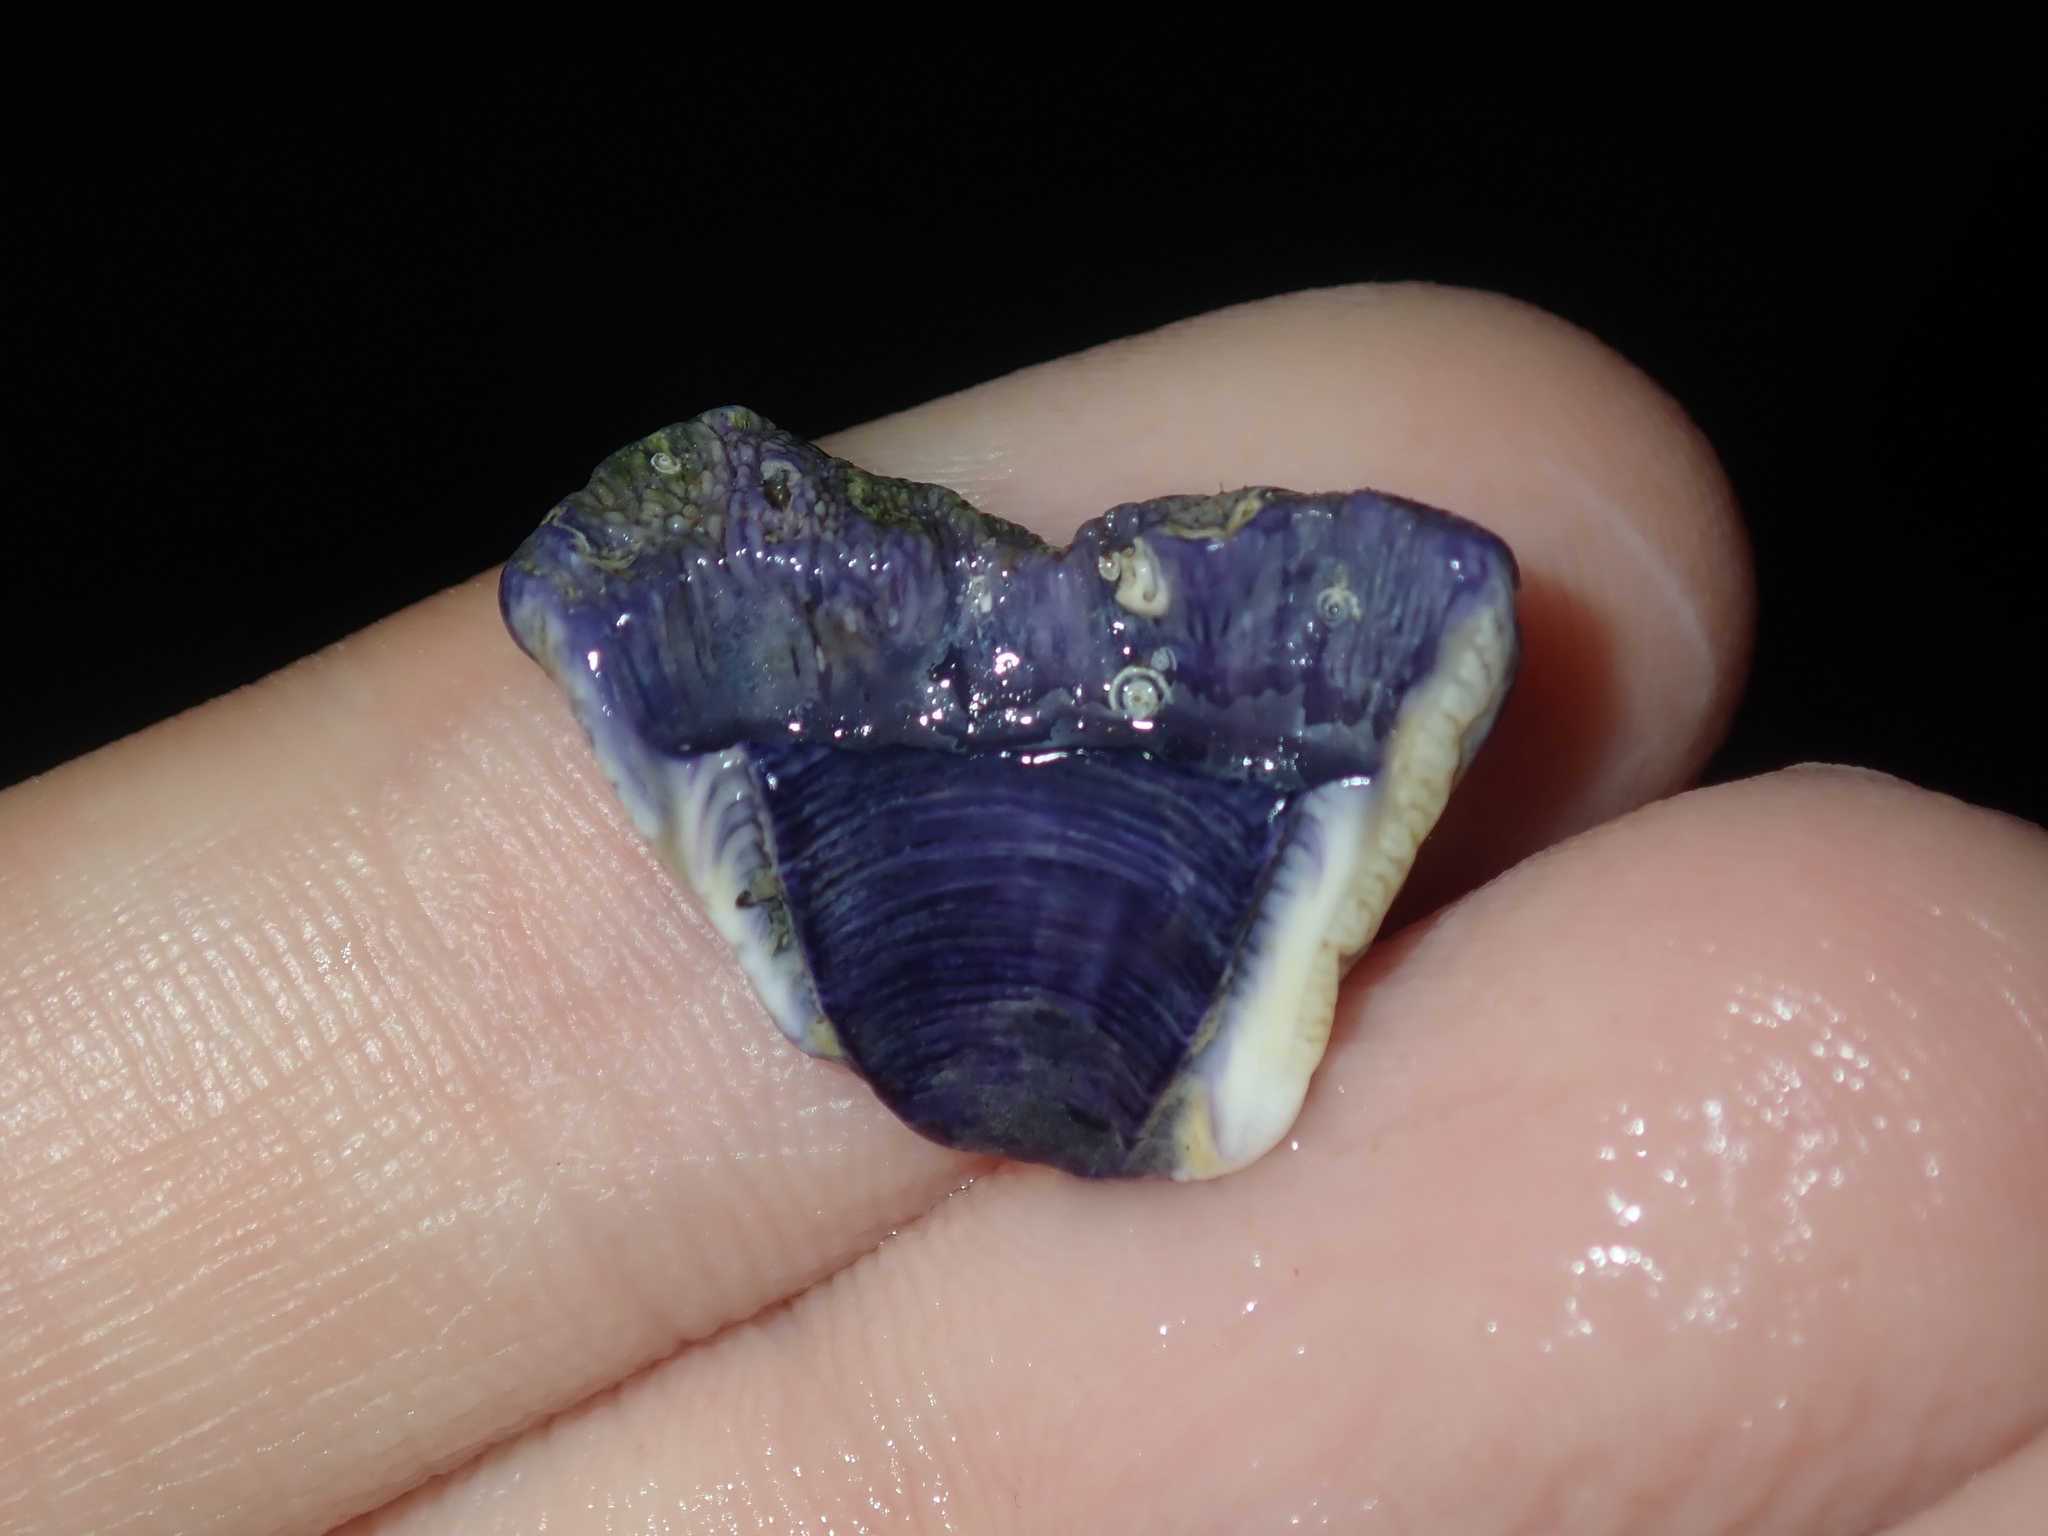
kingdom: Animalia
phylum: Arthropoda
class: Maxillopoda
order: Sessilia
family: Austrobalanidae
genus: Austrobalanus
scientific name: Austrobalanus imperator
